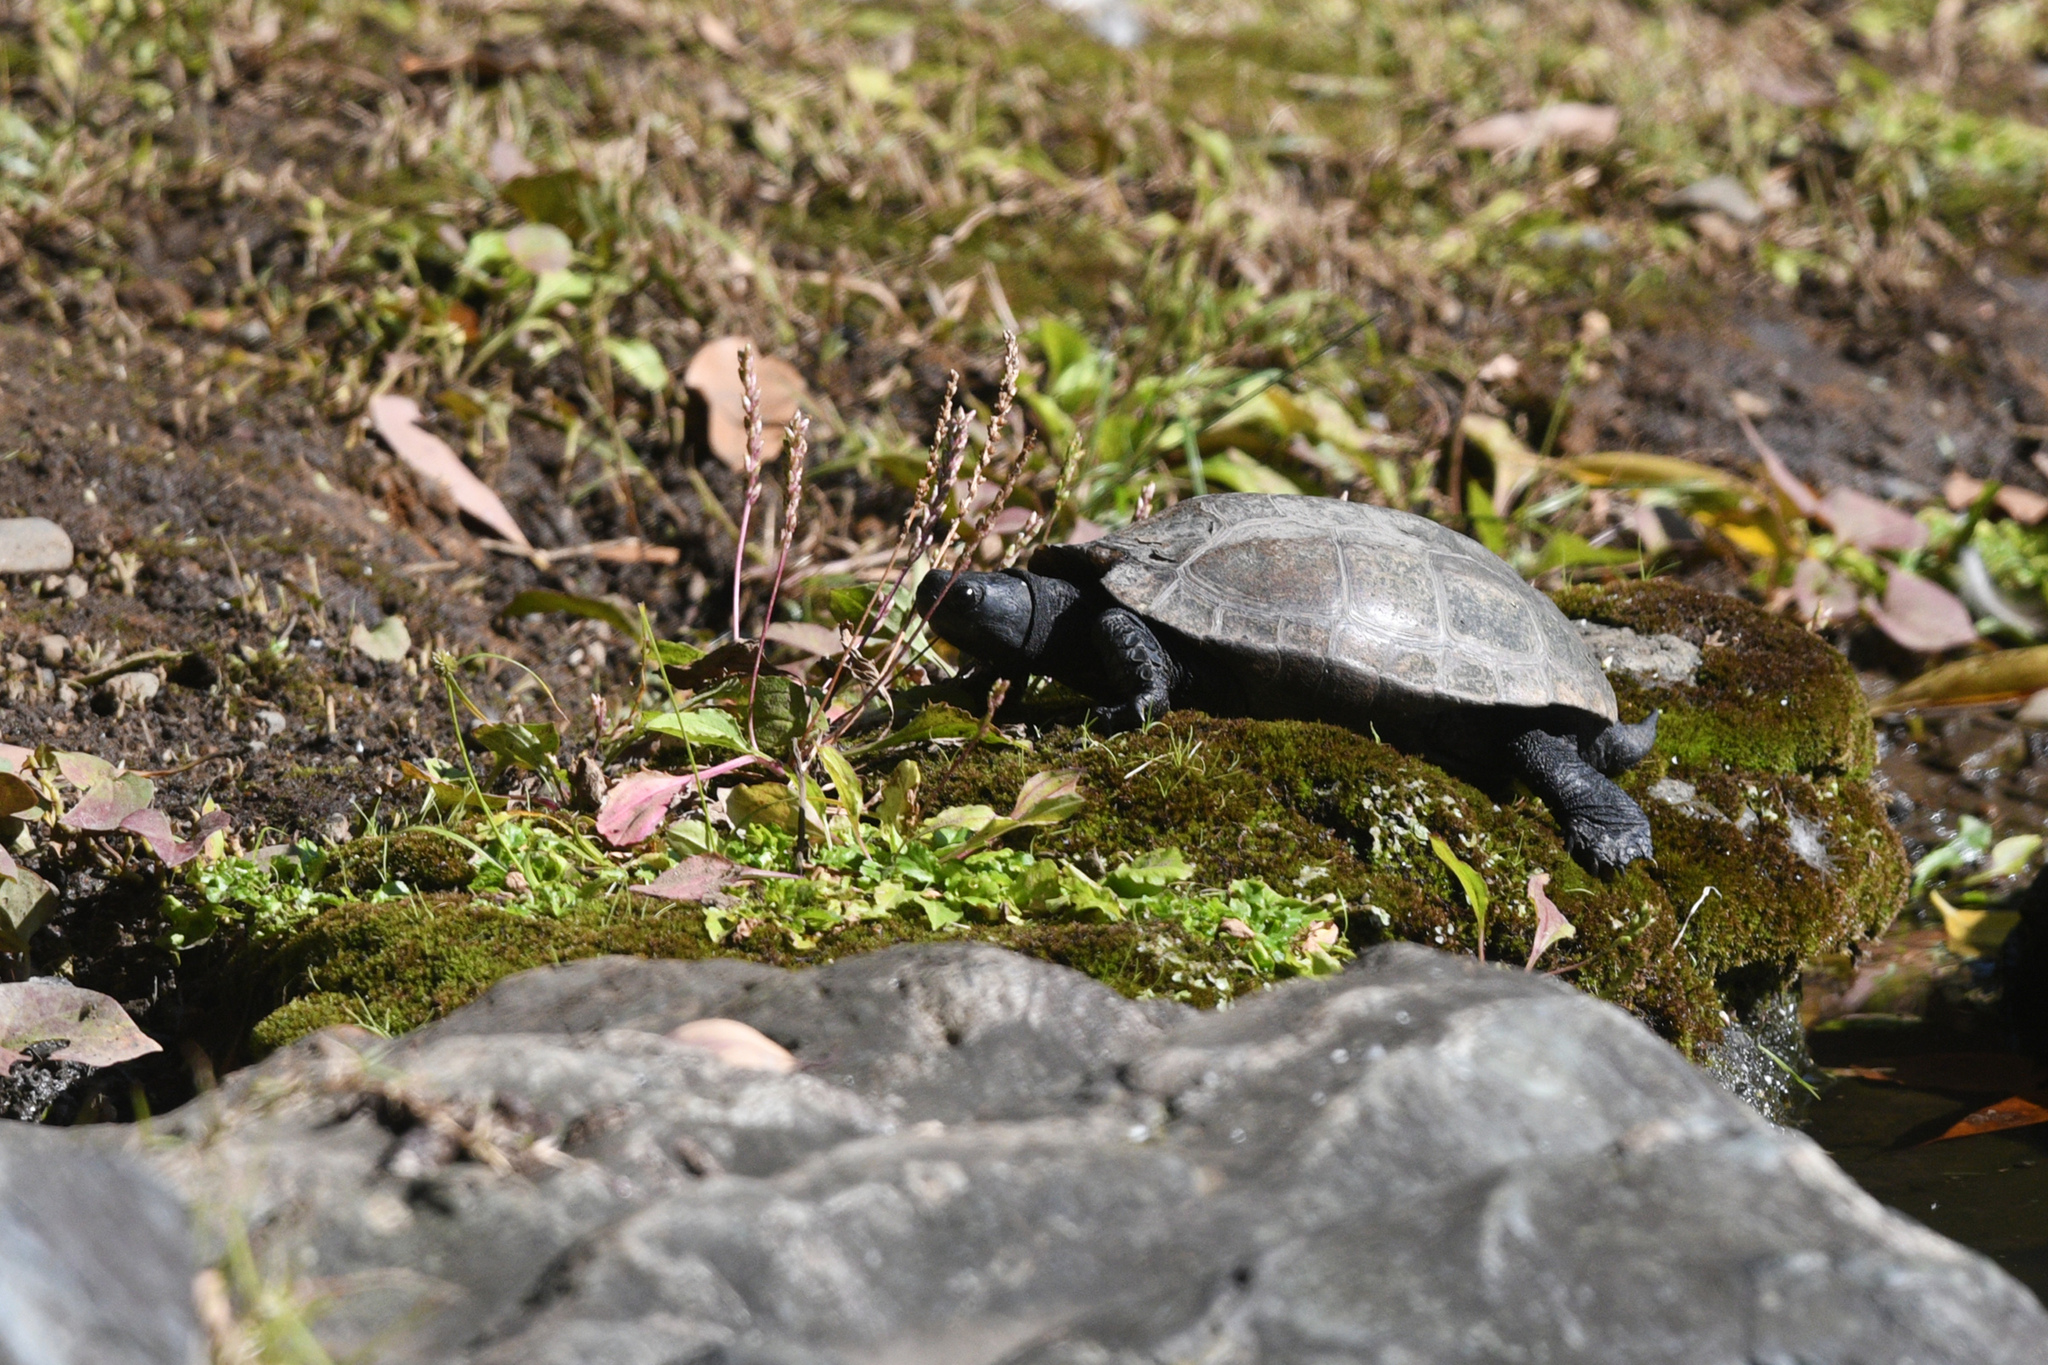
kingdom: Animalia
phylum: Chordata
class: Testudines
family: Geoemydidae
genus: Mauremys
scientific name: Mauremys reevesii
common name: Chinese pond turtle
